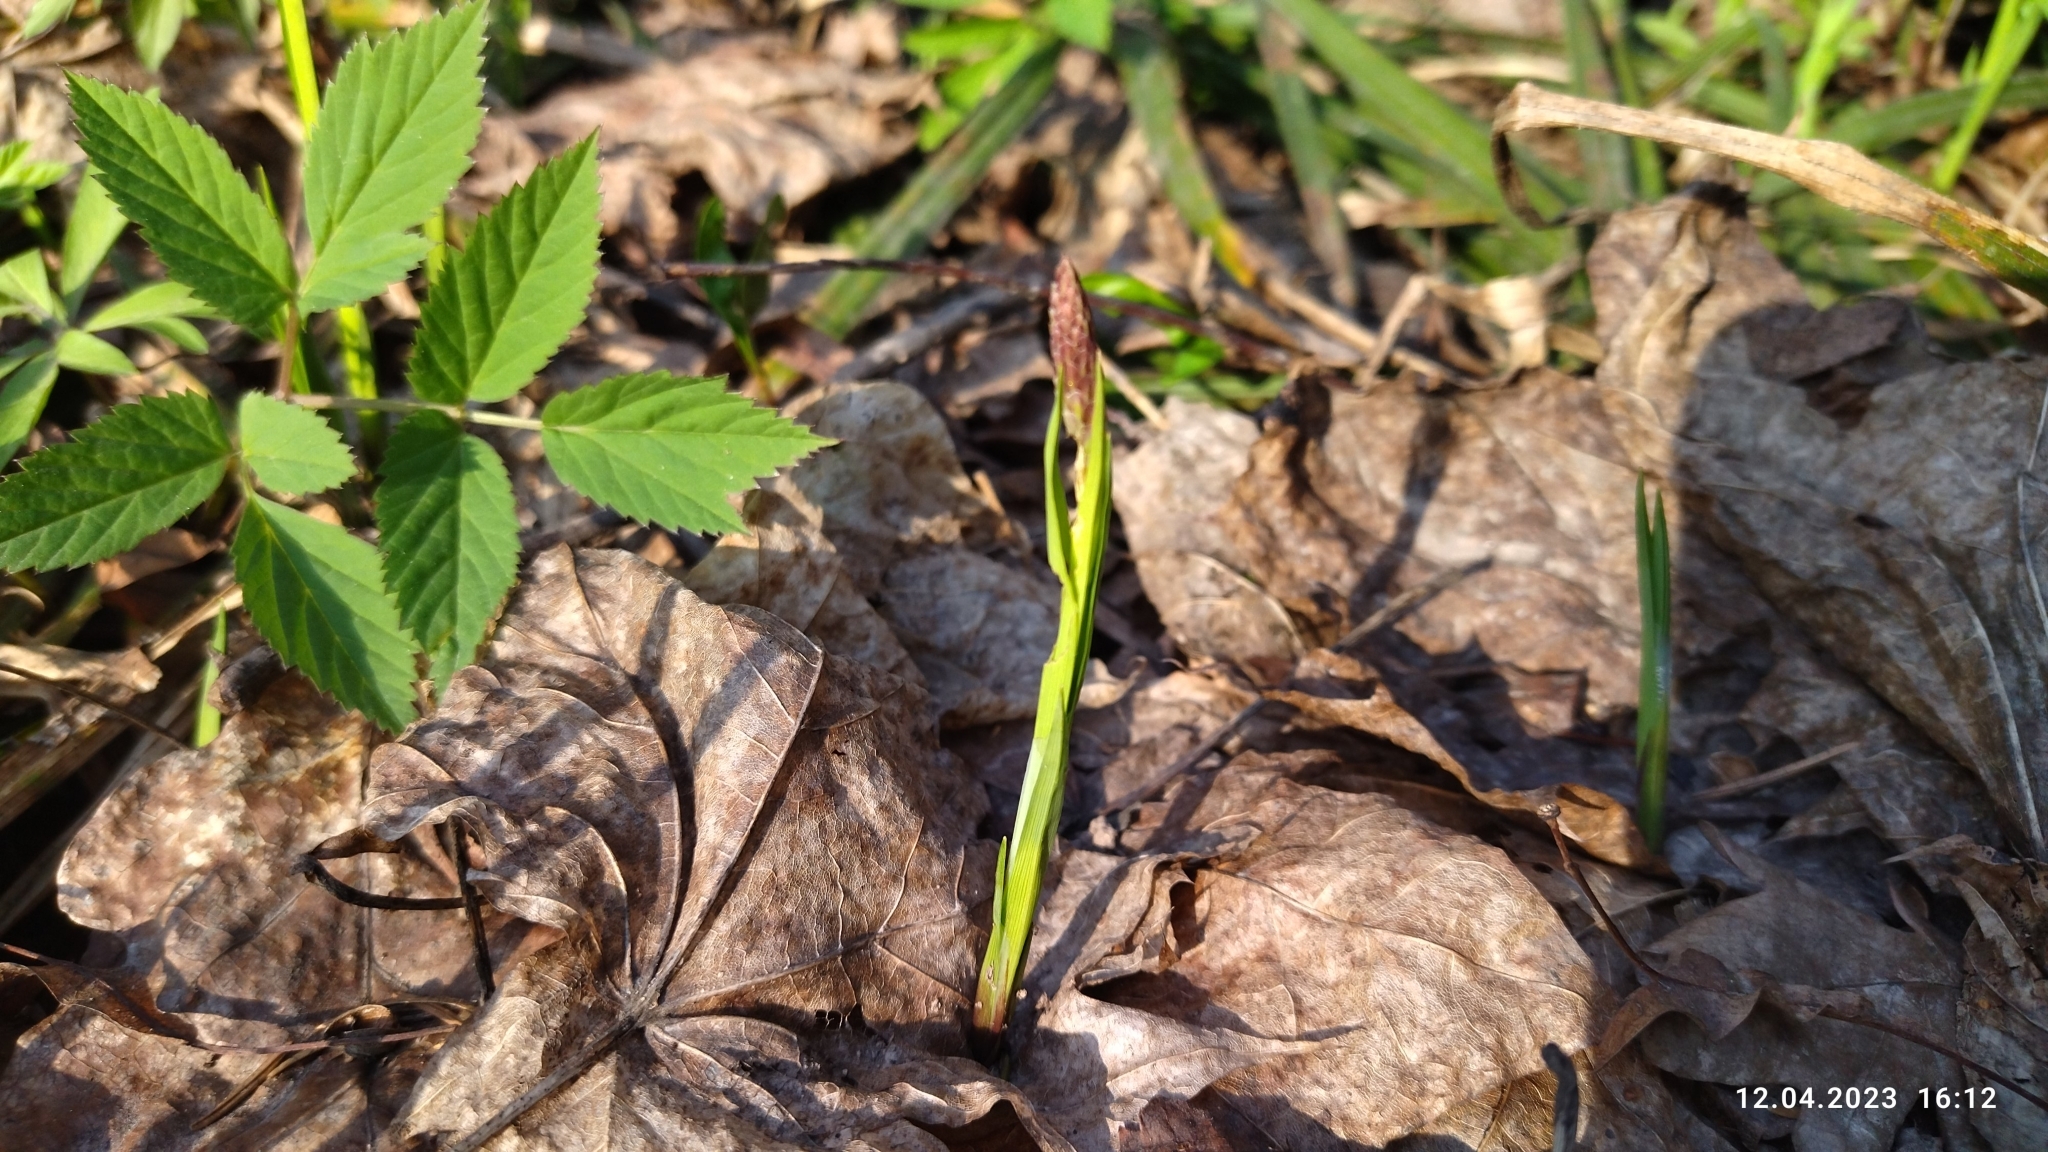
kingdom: Plantae
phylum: Tracheophyta
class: Liliopsida
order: Poales
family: Cyperaceae
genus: Carex
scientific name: Carex pilosa
